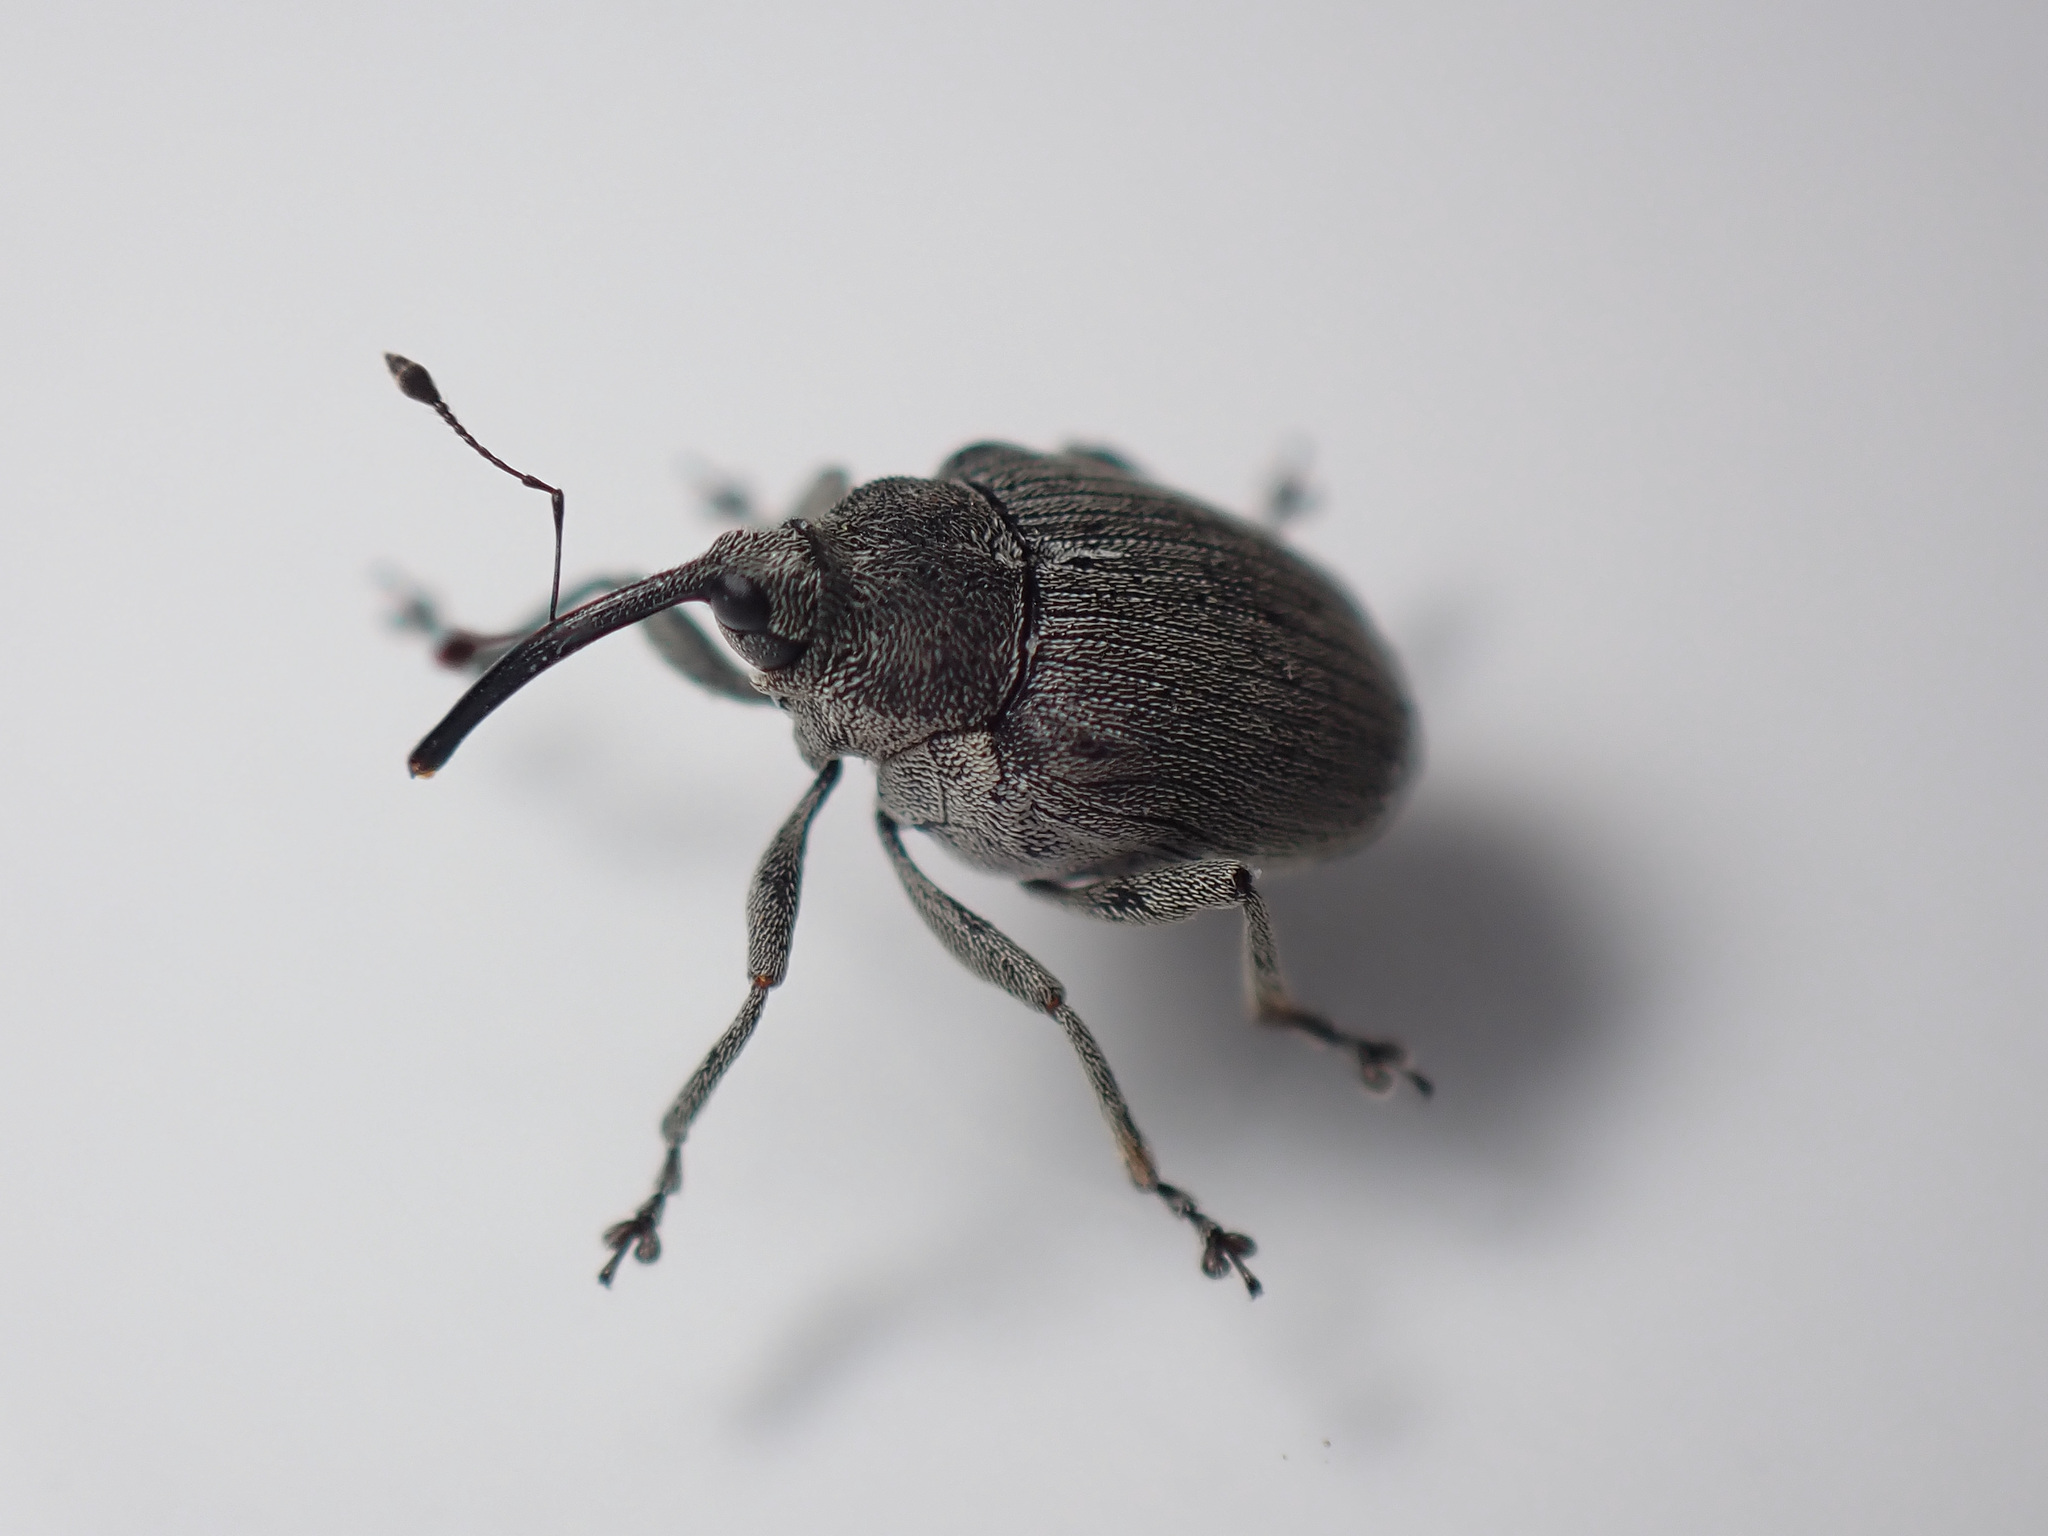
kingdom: Animalia
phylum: Arthropoda
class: Insecta
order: Coleoptera
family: Curculionidae
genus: Ceutorhynchus
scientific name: Ceutorhynchus napi
